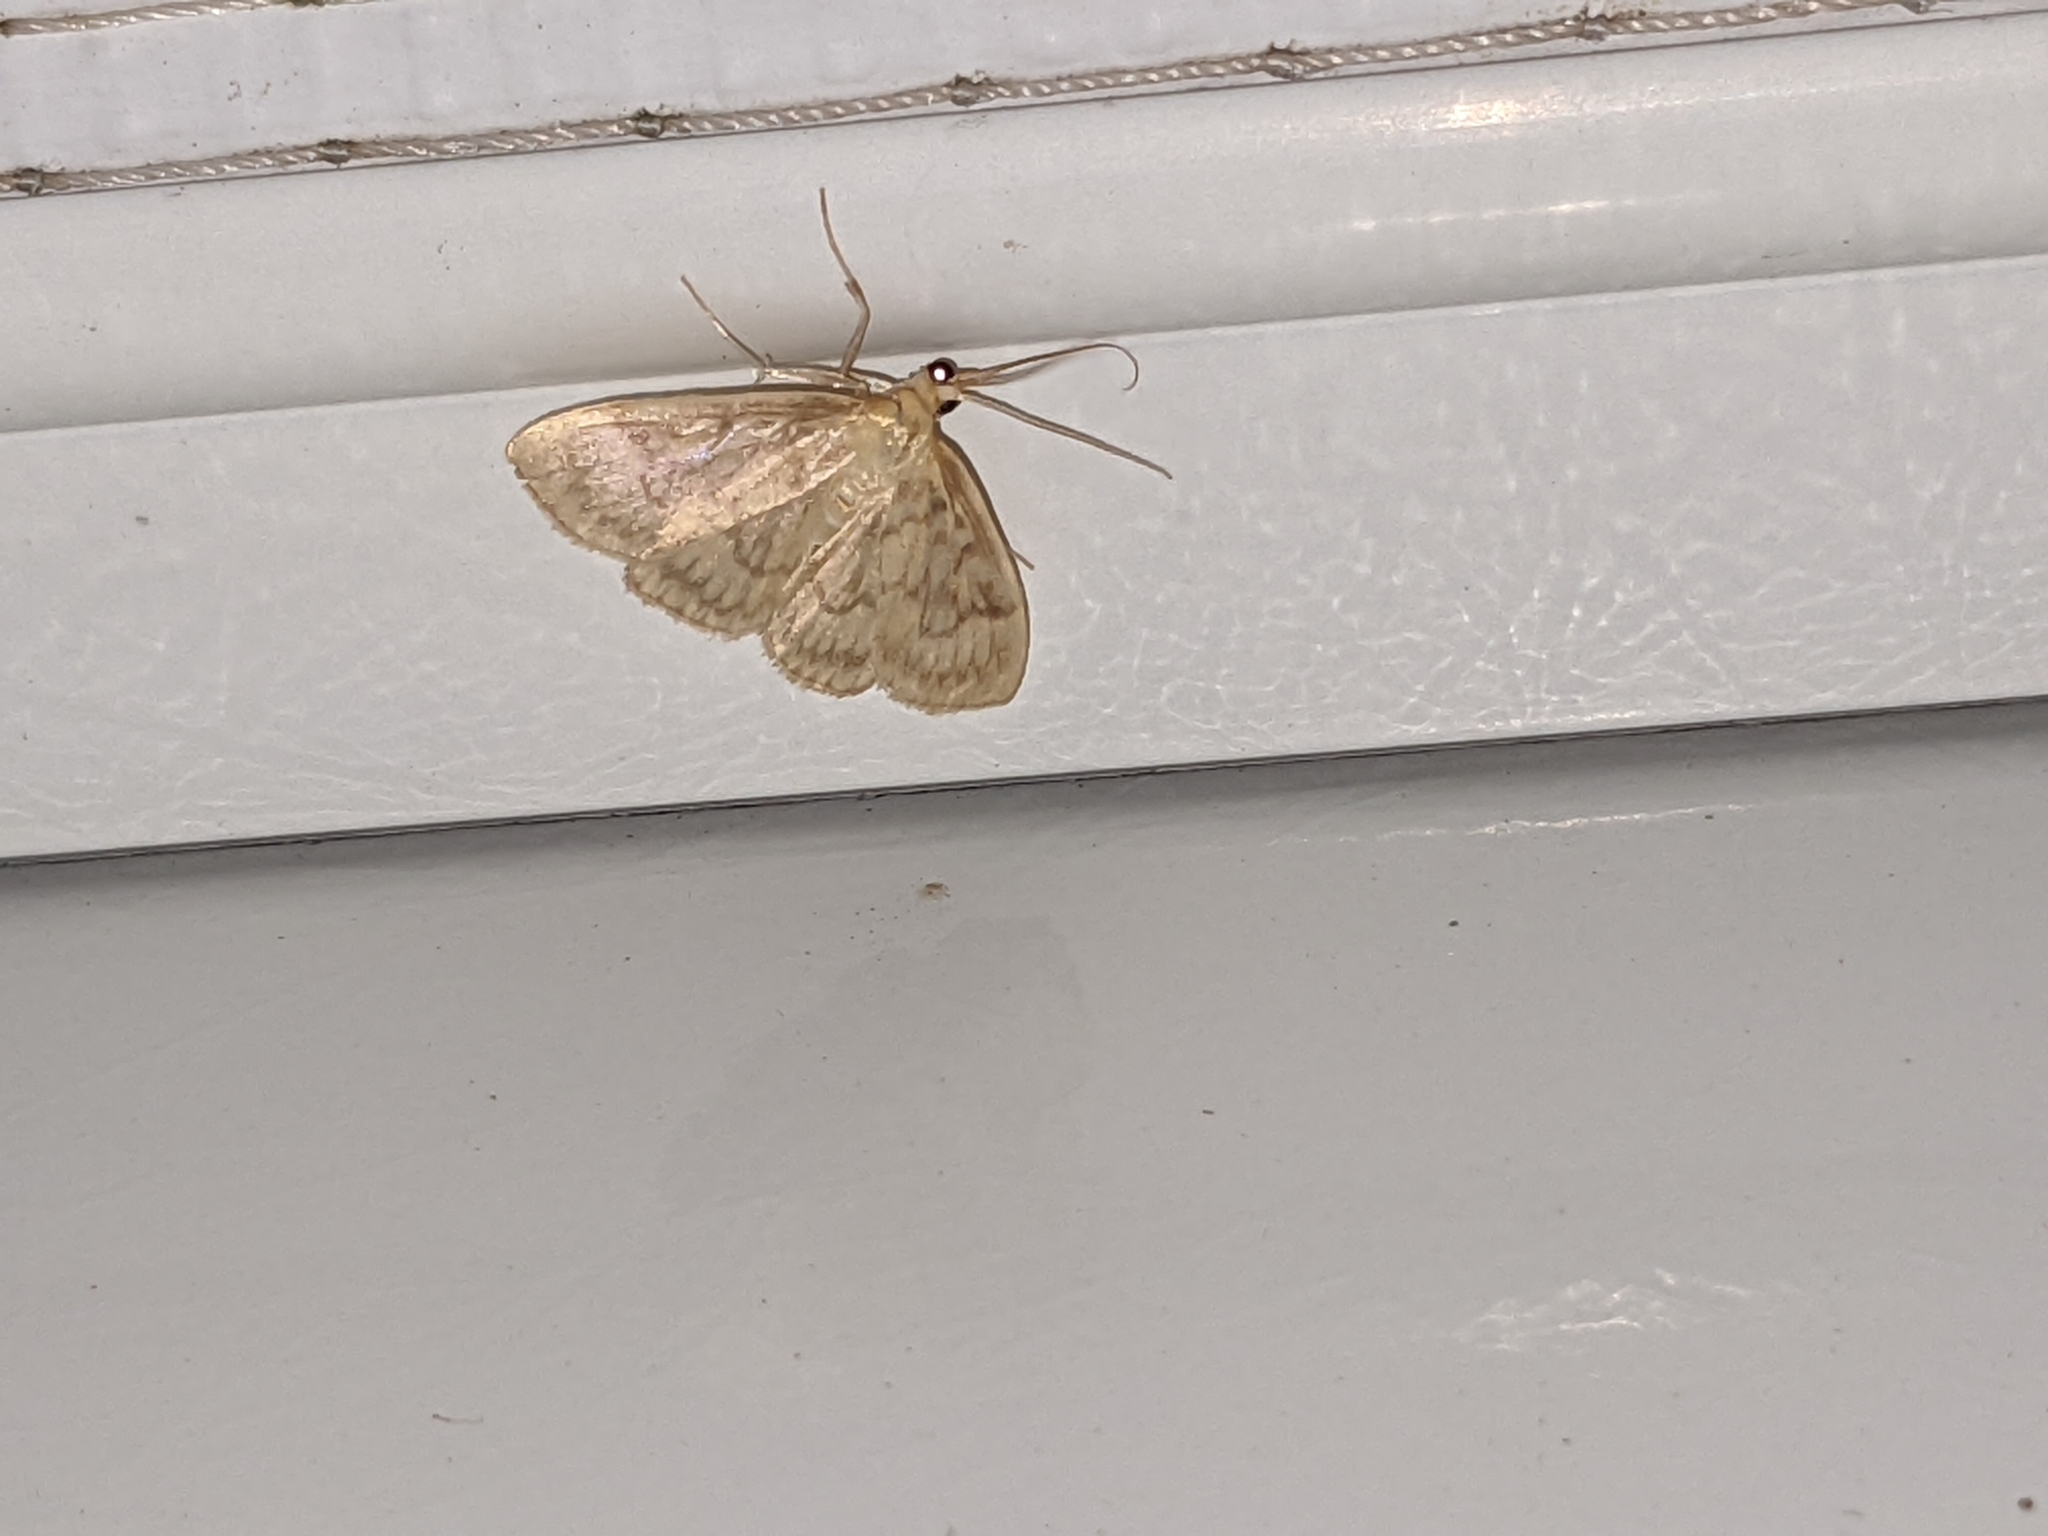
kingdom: Animalia
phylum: Arthropoda
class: Insecta
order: Lepidoptera
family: Crambidae
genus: Crocidophora
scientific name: Crocidophora serratissimalis
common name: Saw-toothed crocidophora moth
